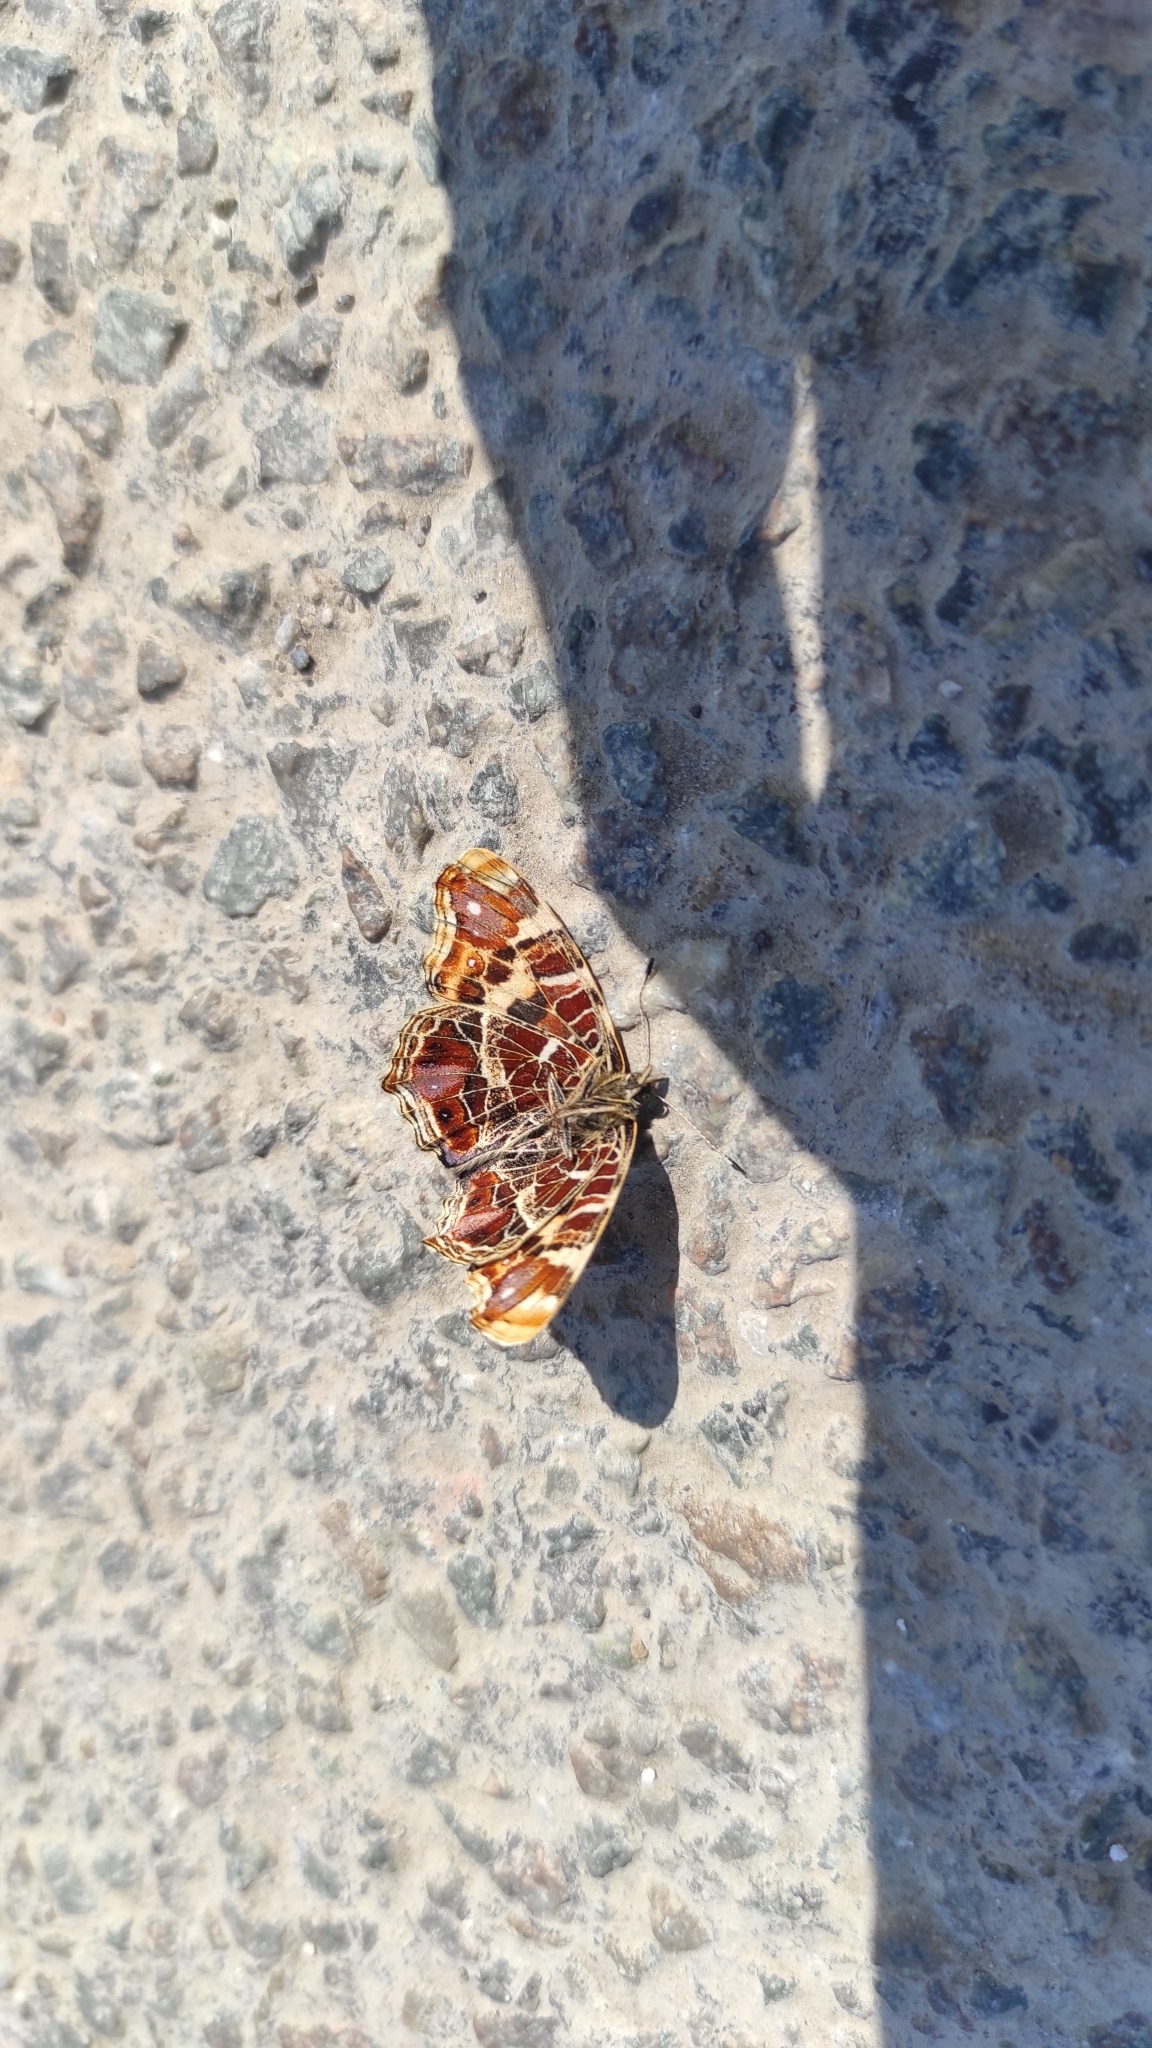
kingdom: Animalia
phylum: Arthropoda
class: Insecta
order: Lepidoptera
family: Nymphalidae
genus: Araschnia
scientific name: Araschnia levana
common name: Map butterfly
